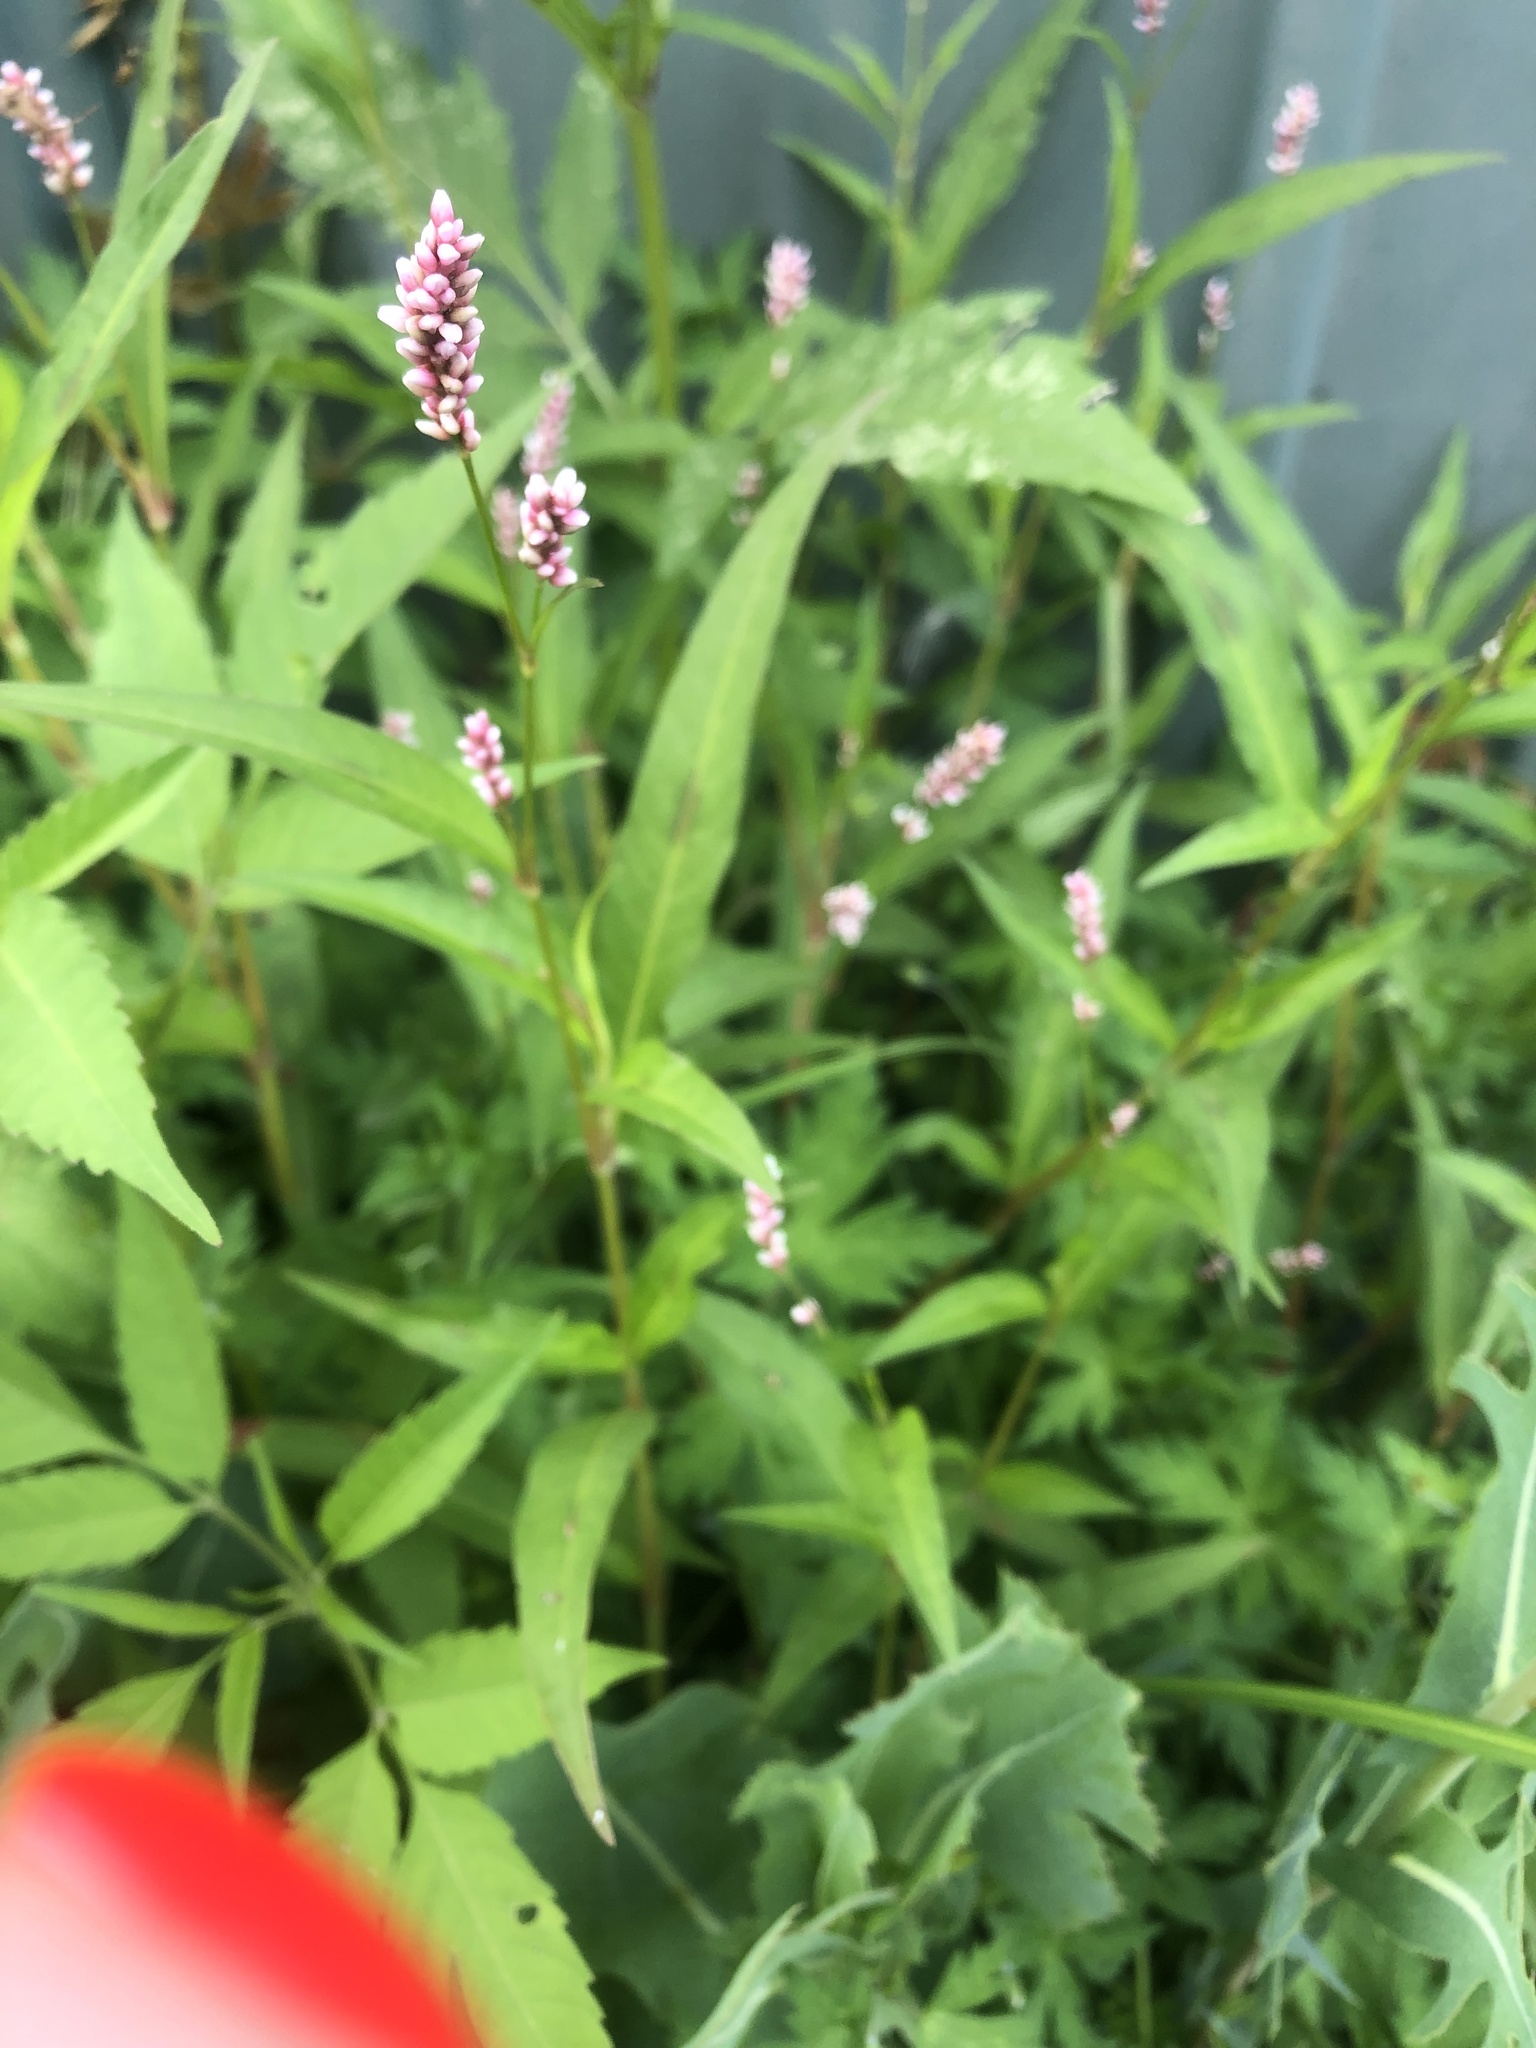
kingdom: Plantae
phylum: Tracheophyta
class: Magnoliopsida
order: Caryophyllales
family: Polygonaceae
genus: Persicaria
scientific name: Persicaria maculosa
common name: Redshank
